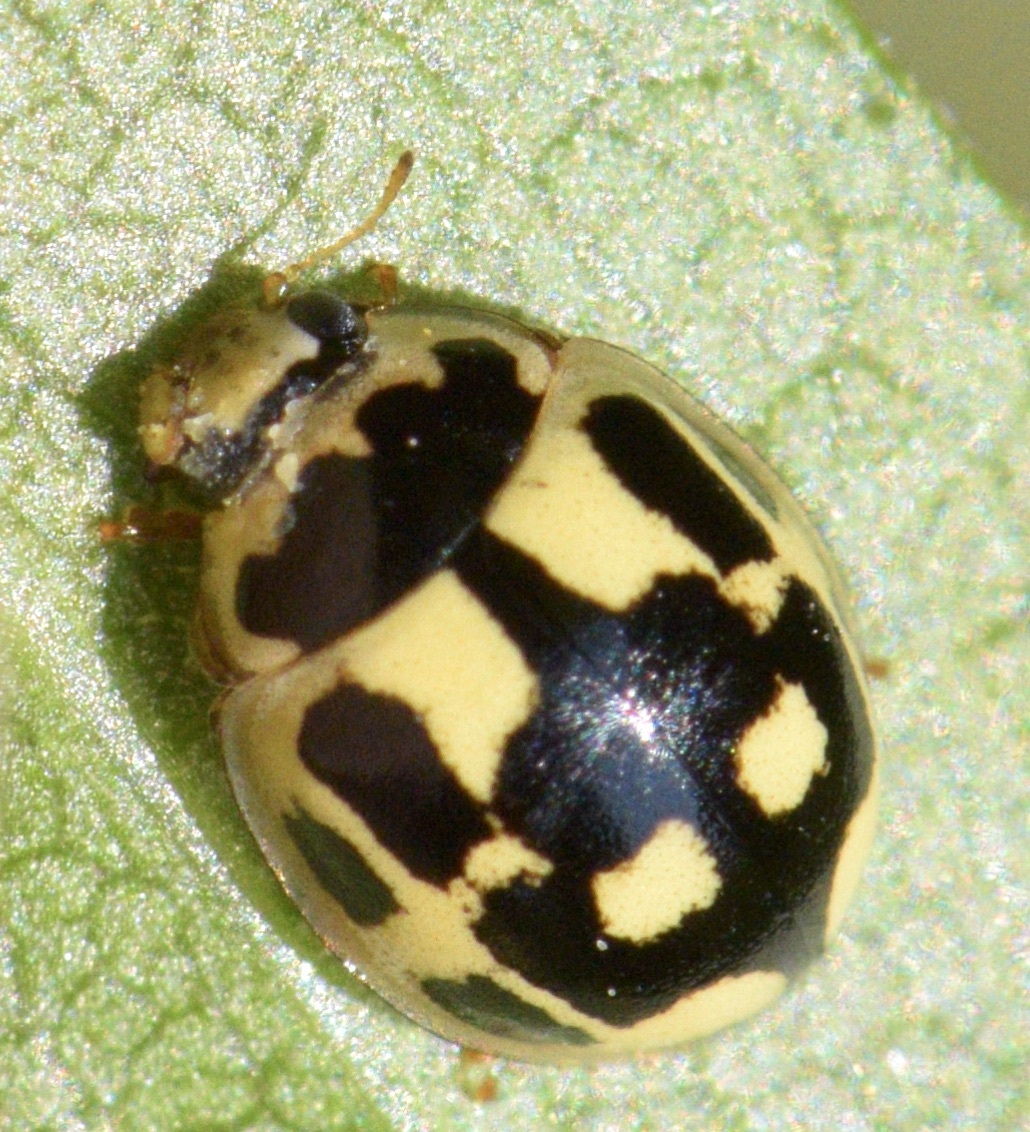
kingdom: Animalia
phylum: Arthropoda
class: Insecta
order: Coleoptera
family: Coccinellidae
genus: Propylaea
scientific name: Propylaea quatuordecimpunctata
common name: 14-spotted ladybird beetle
